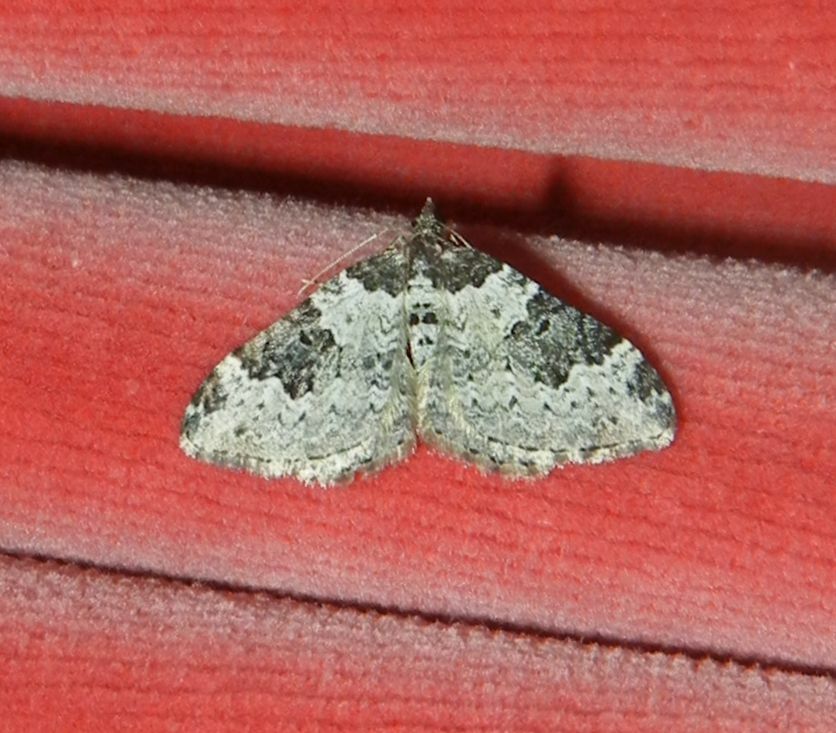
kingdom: Animalia
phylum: Arthropoda
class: Insecta
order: Lepidoptera
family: Geometridae
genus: Xanthorhoe
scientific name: Xanthorhoe fluctuata
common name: Garden carpet
